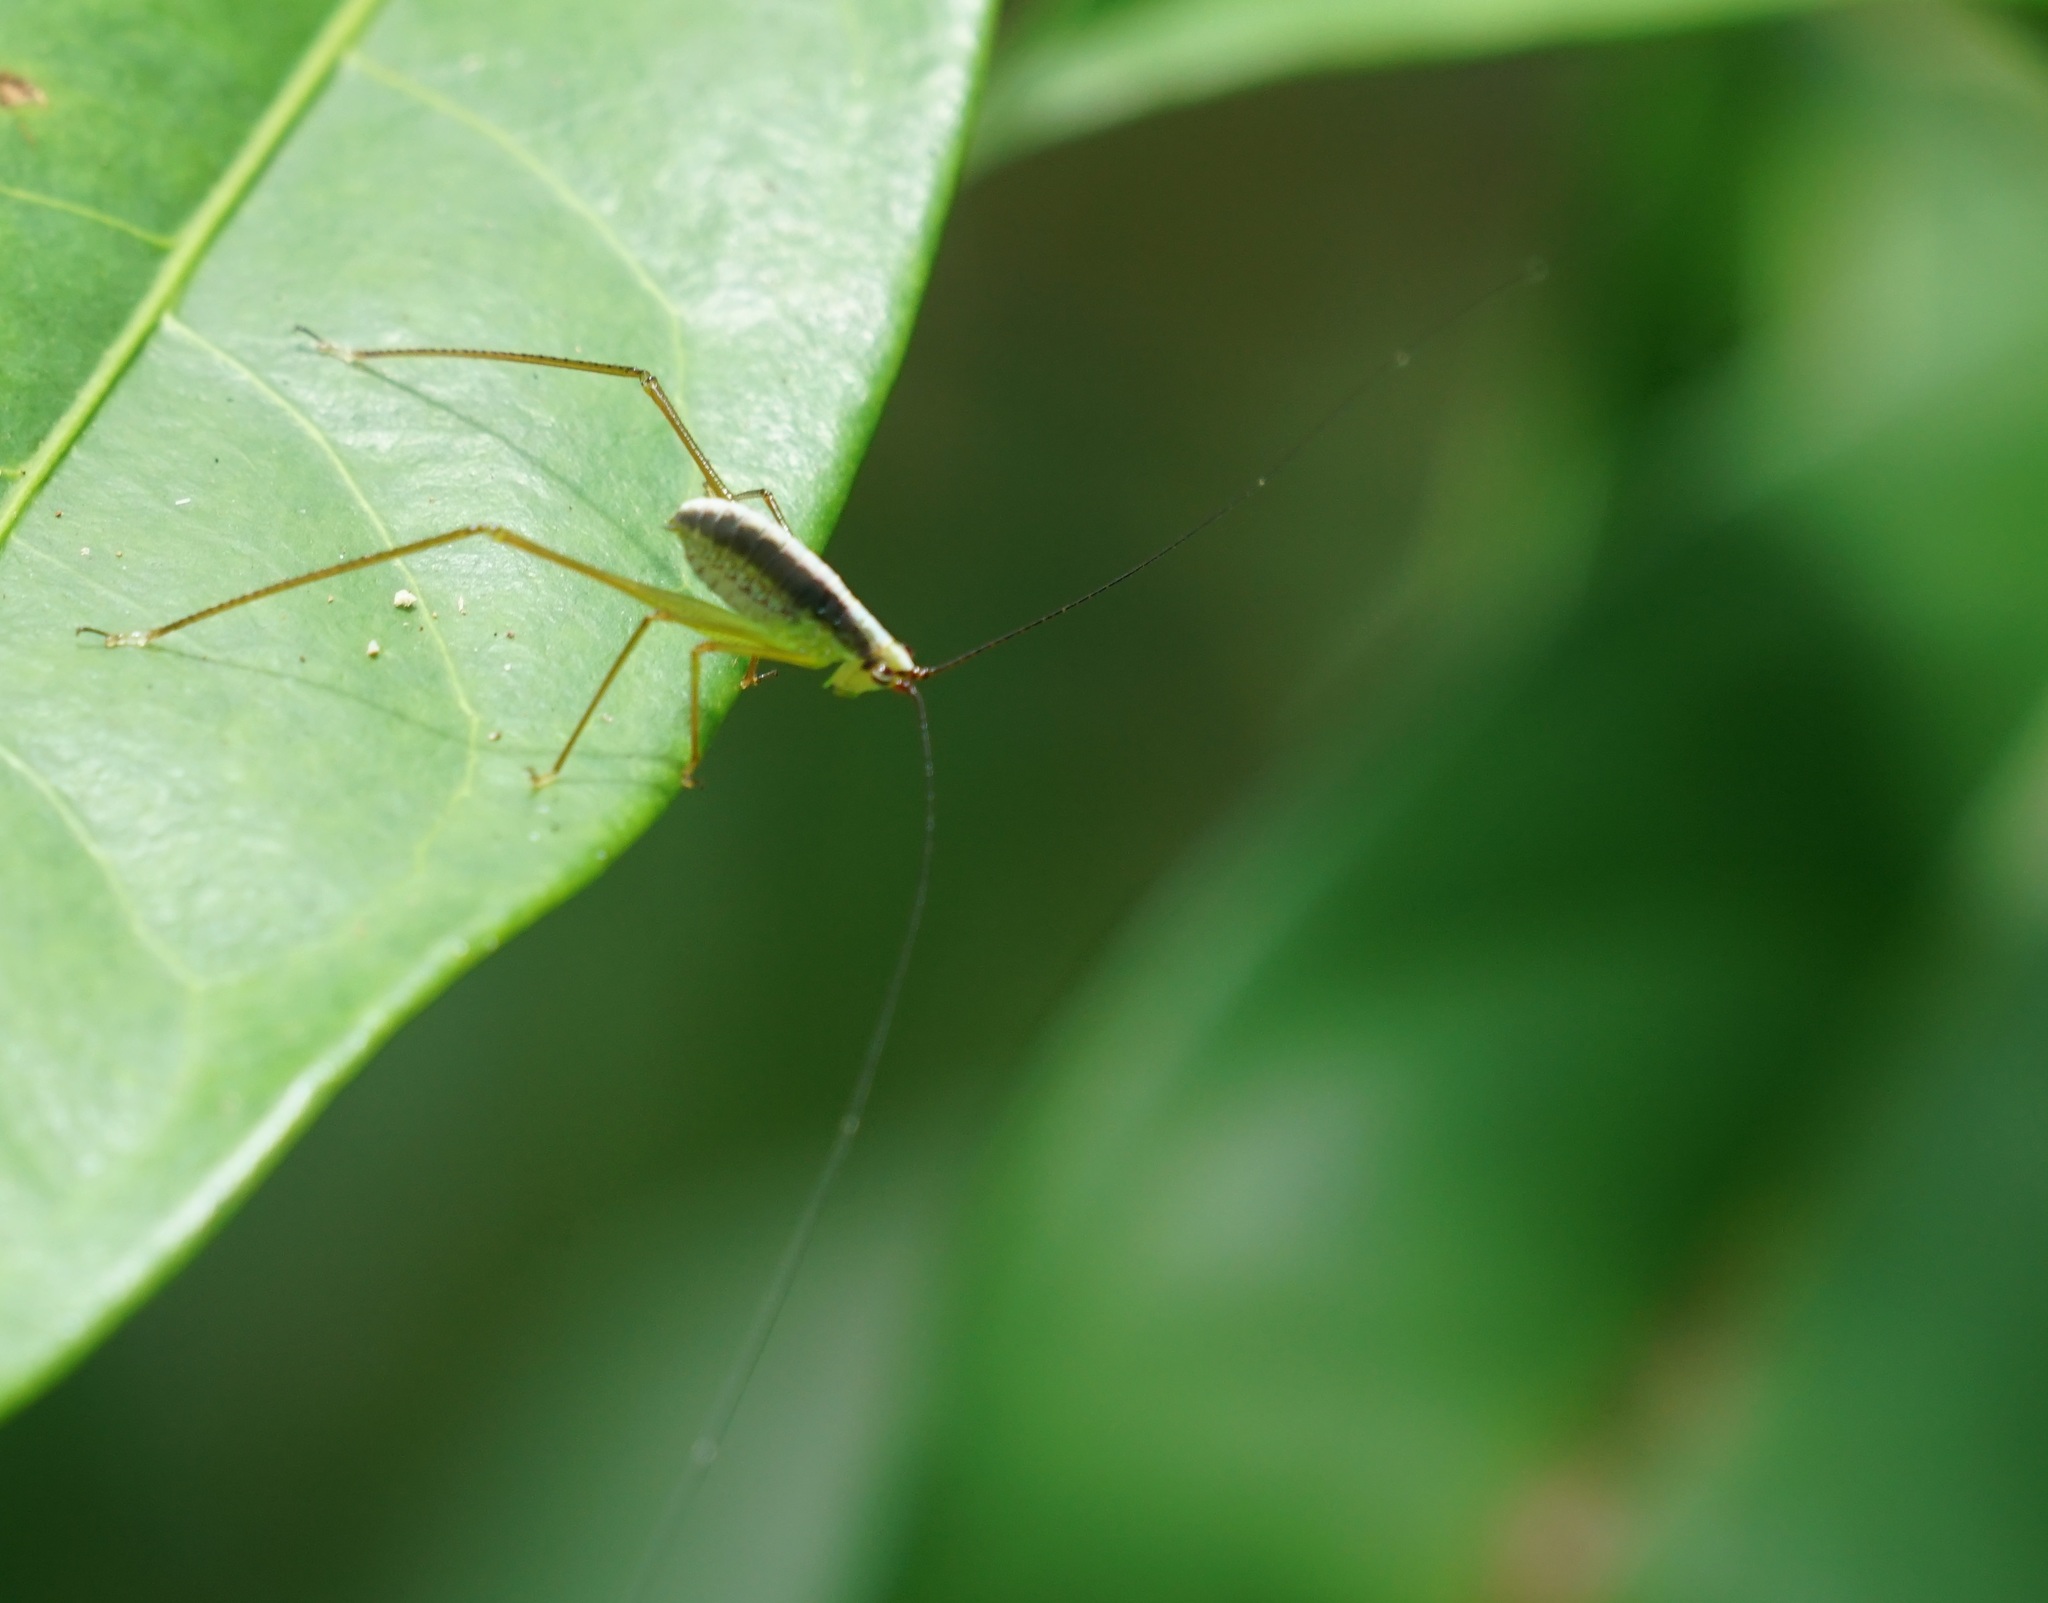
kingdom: Animalia
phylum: Arthropoda
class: Insecta
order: Orthoptera
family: Tettigoniidae
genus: Leucopodoptera
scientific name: Leucopodoptera eumundii
